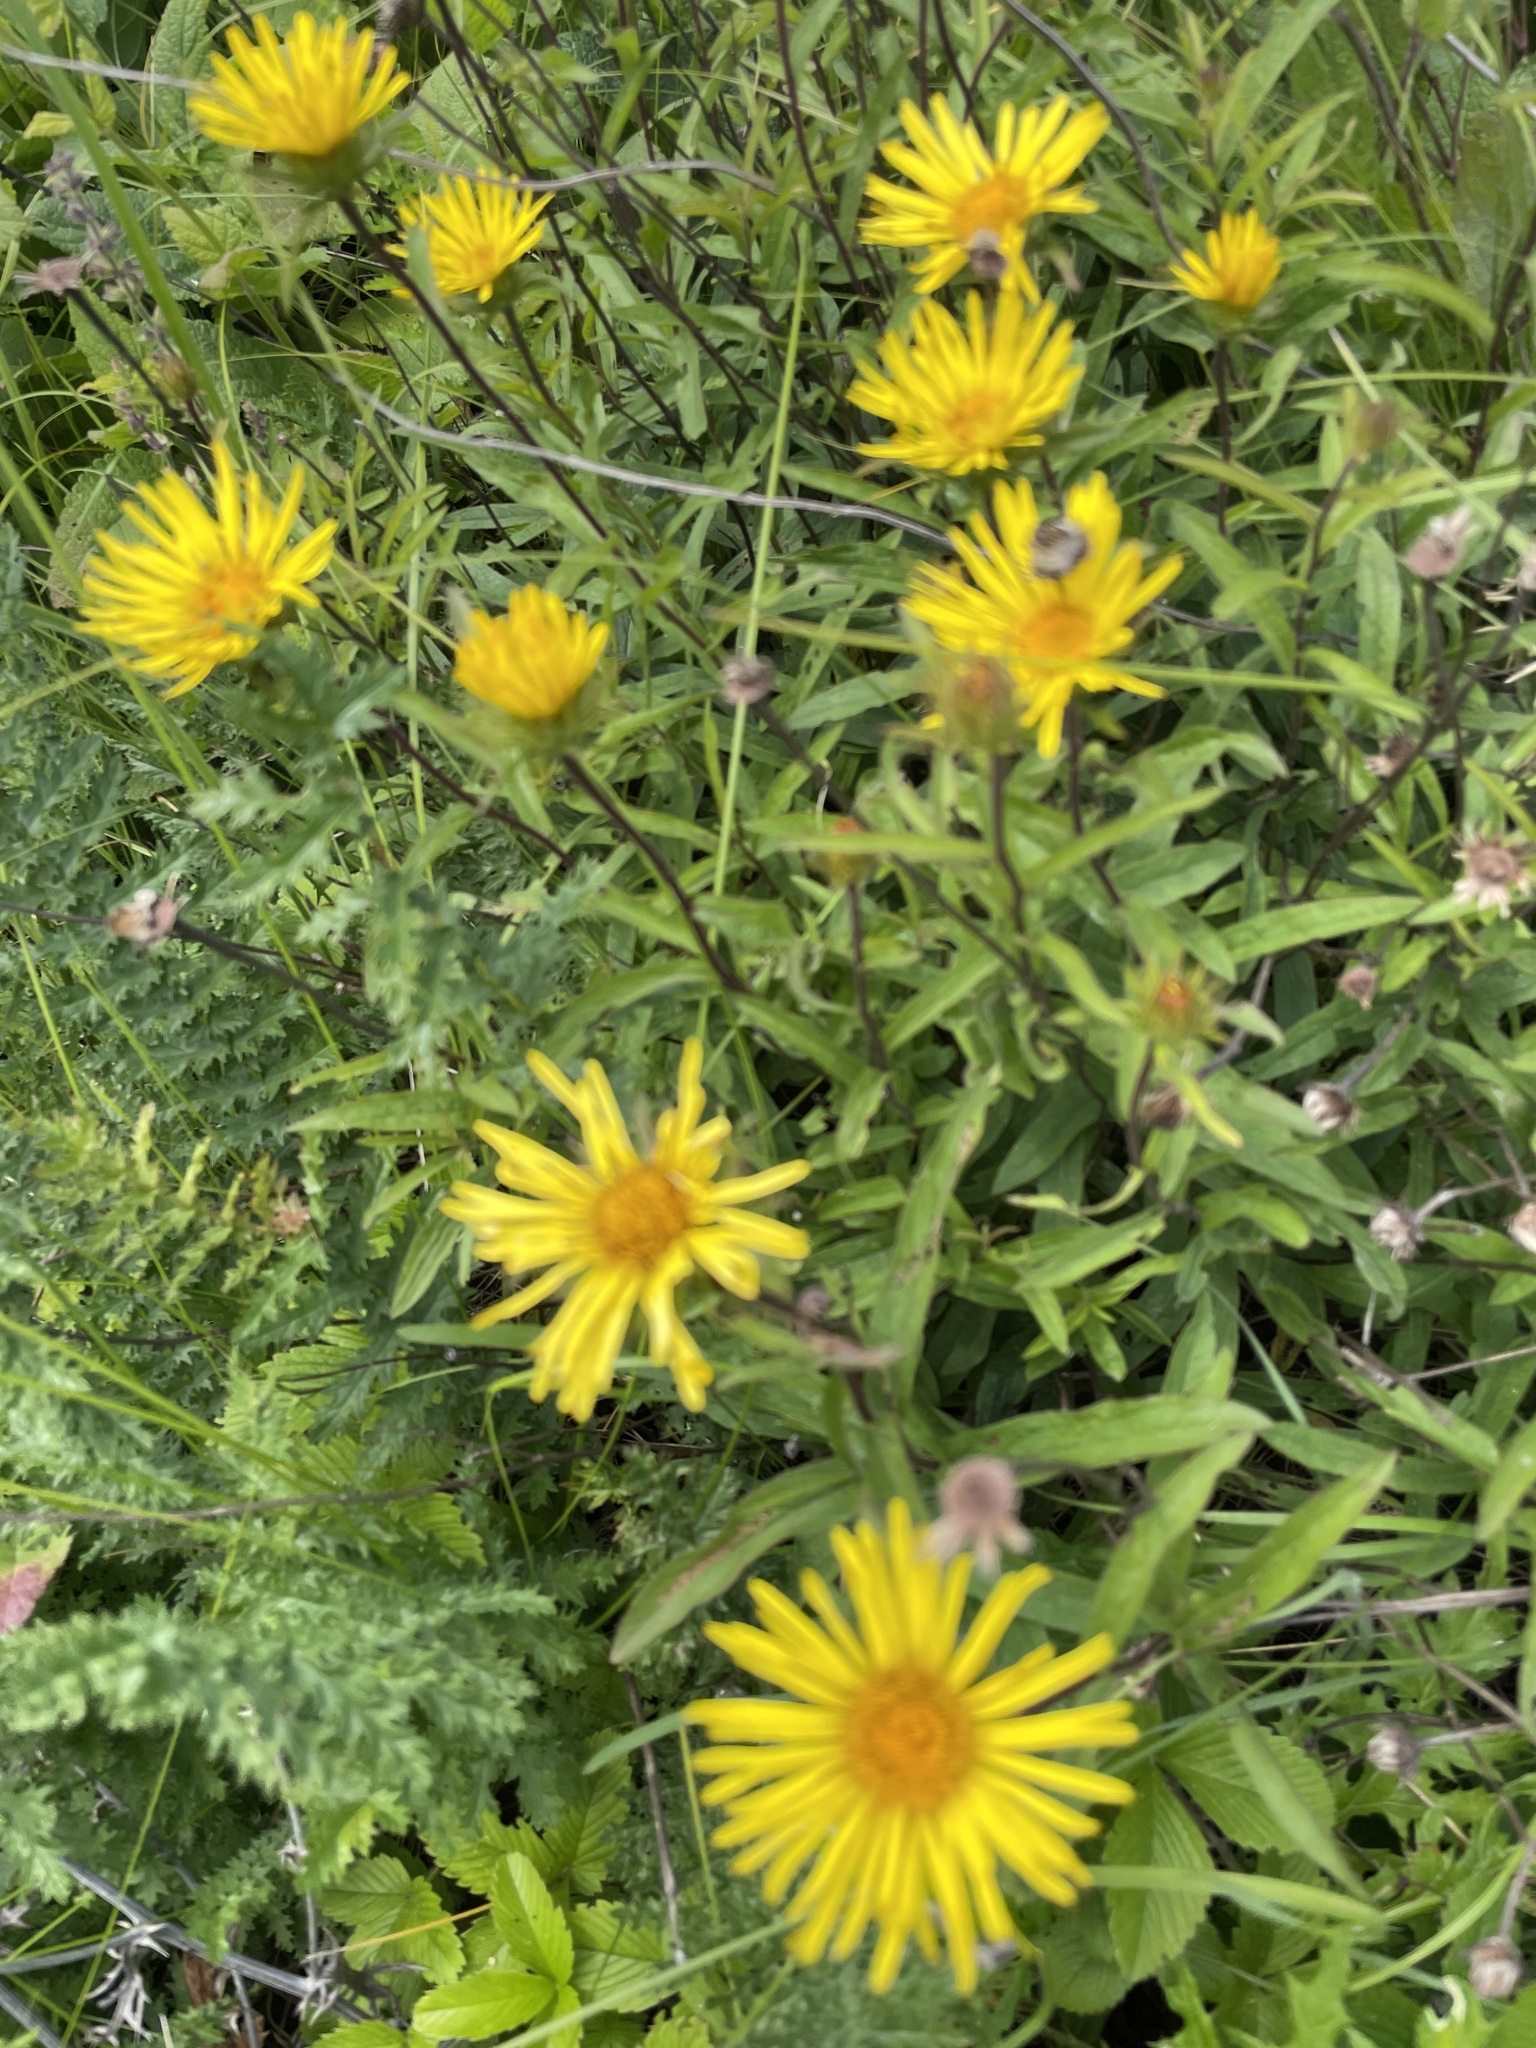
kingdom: Plantae
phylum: Tracheophyta
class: Magnoliopsida
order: Asterales
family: Asteraceae
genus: Pentanema
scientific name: Pentanema hirtum
